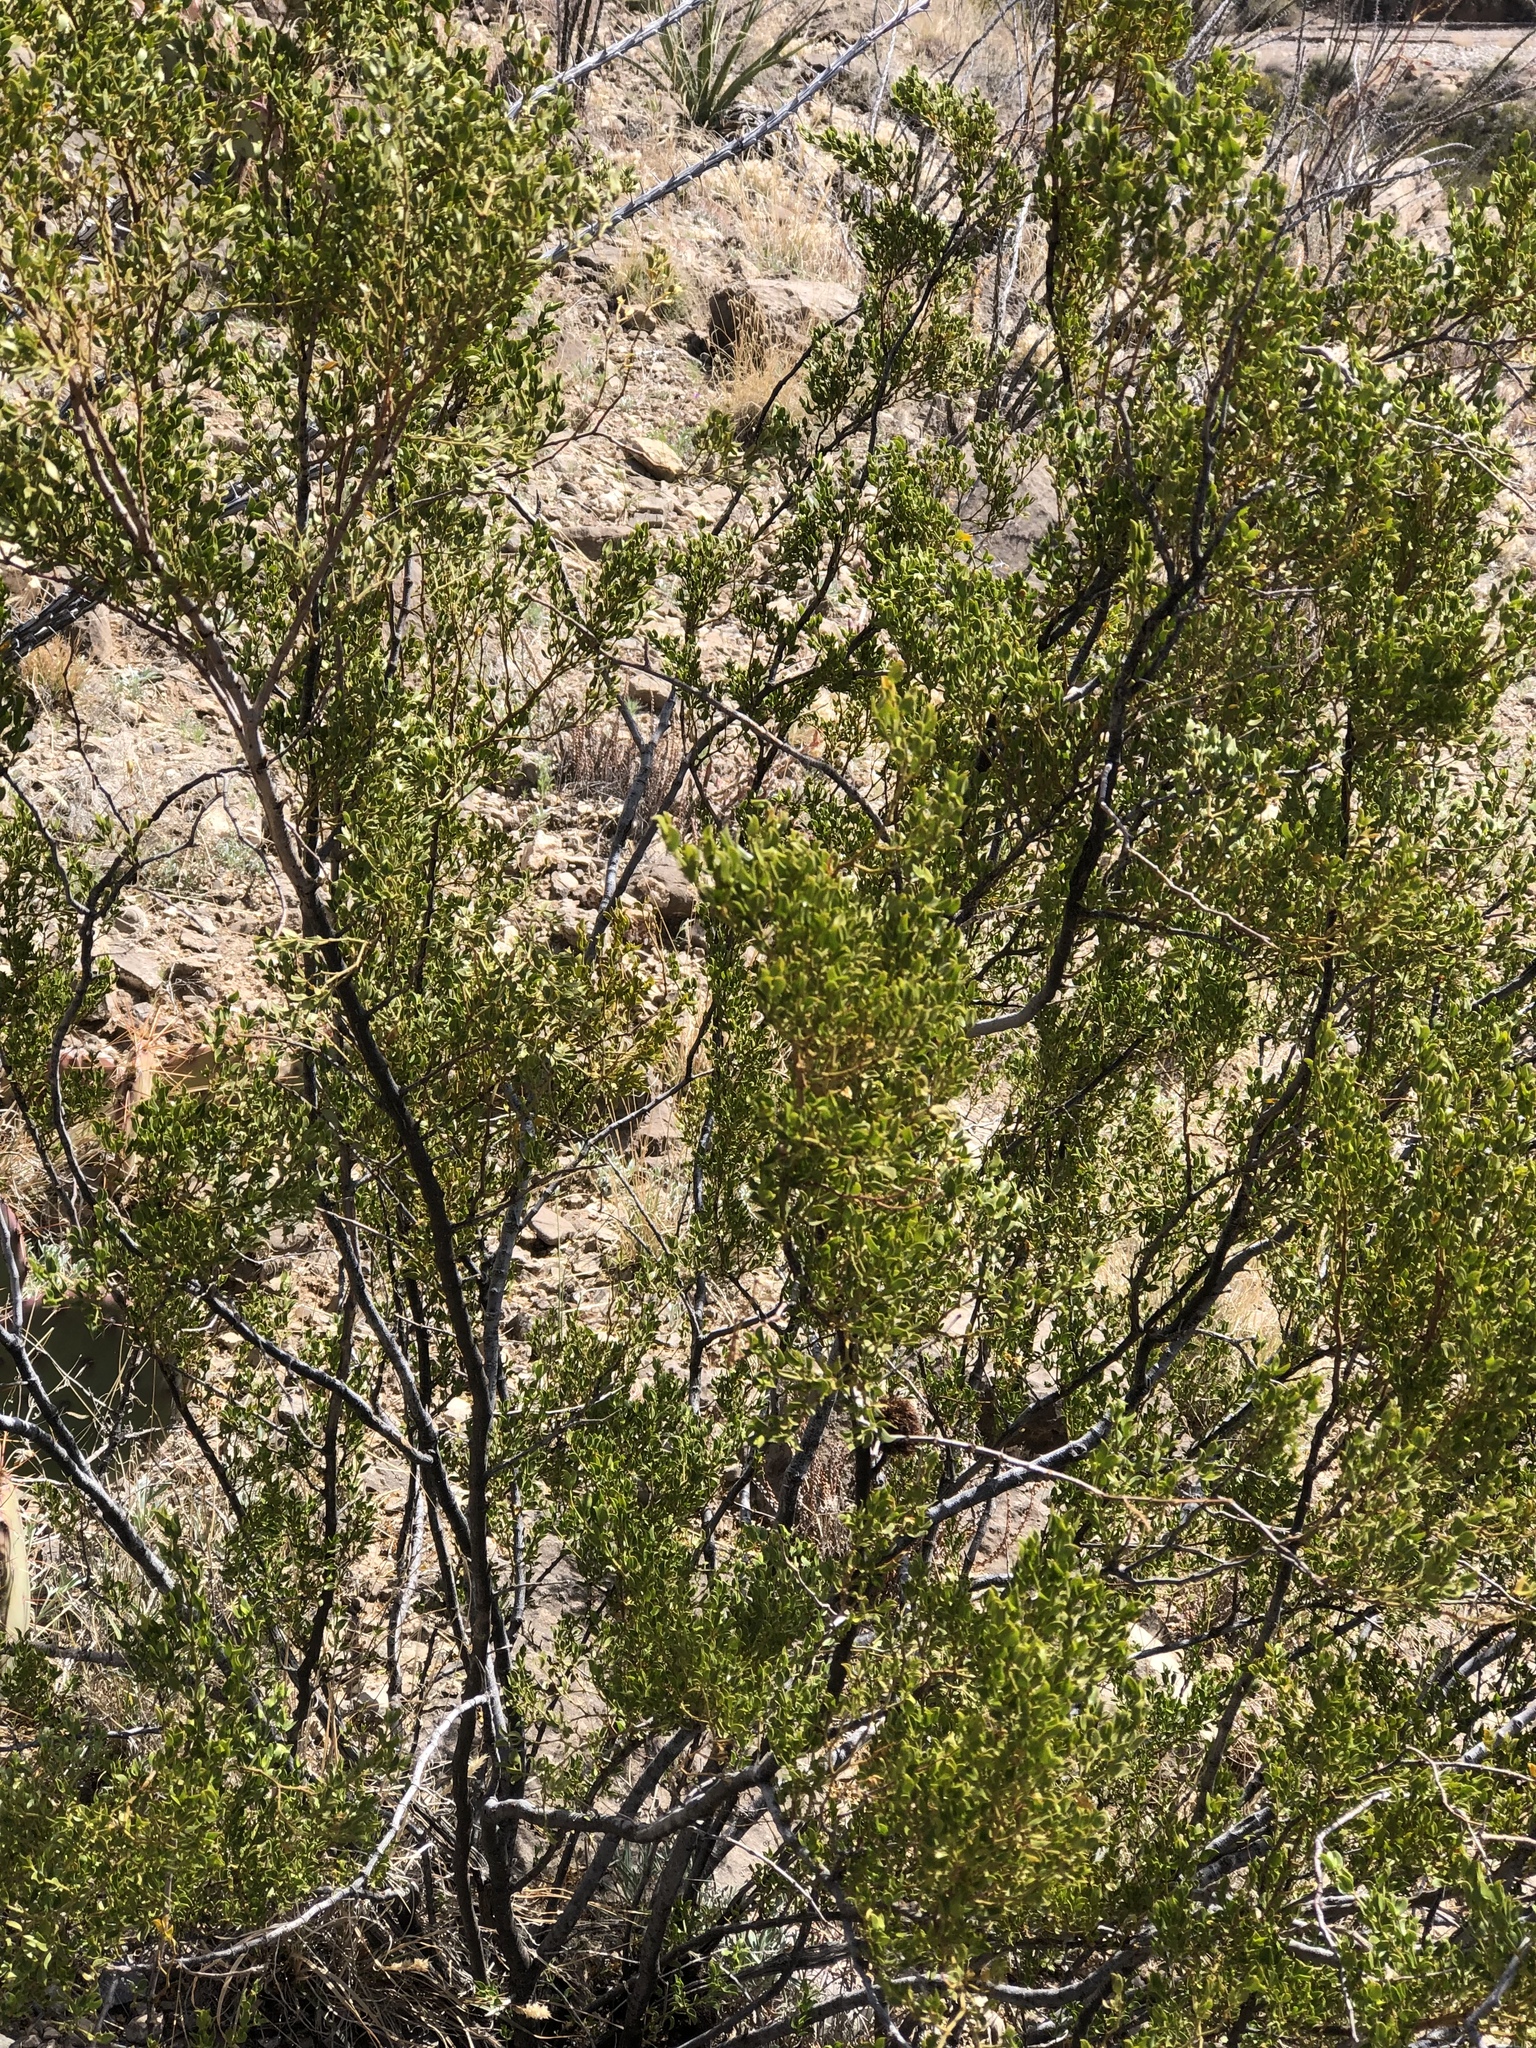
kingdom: Plantae
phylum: Tracheophyta
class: Magnoliopsida
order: Zygophyllales
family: Zygophyllaceae
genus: Larrea
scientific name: Larrea tridentata
